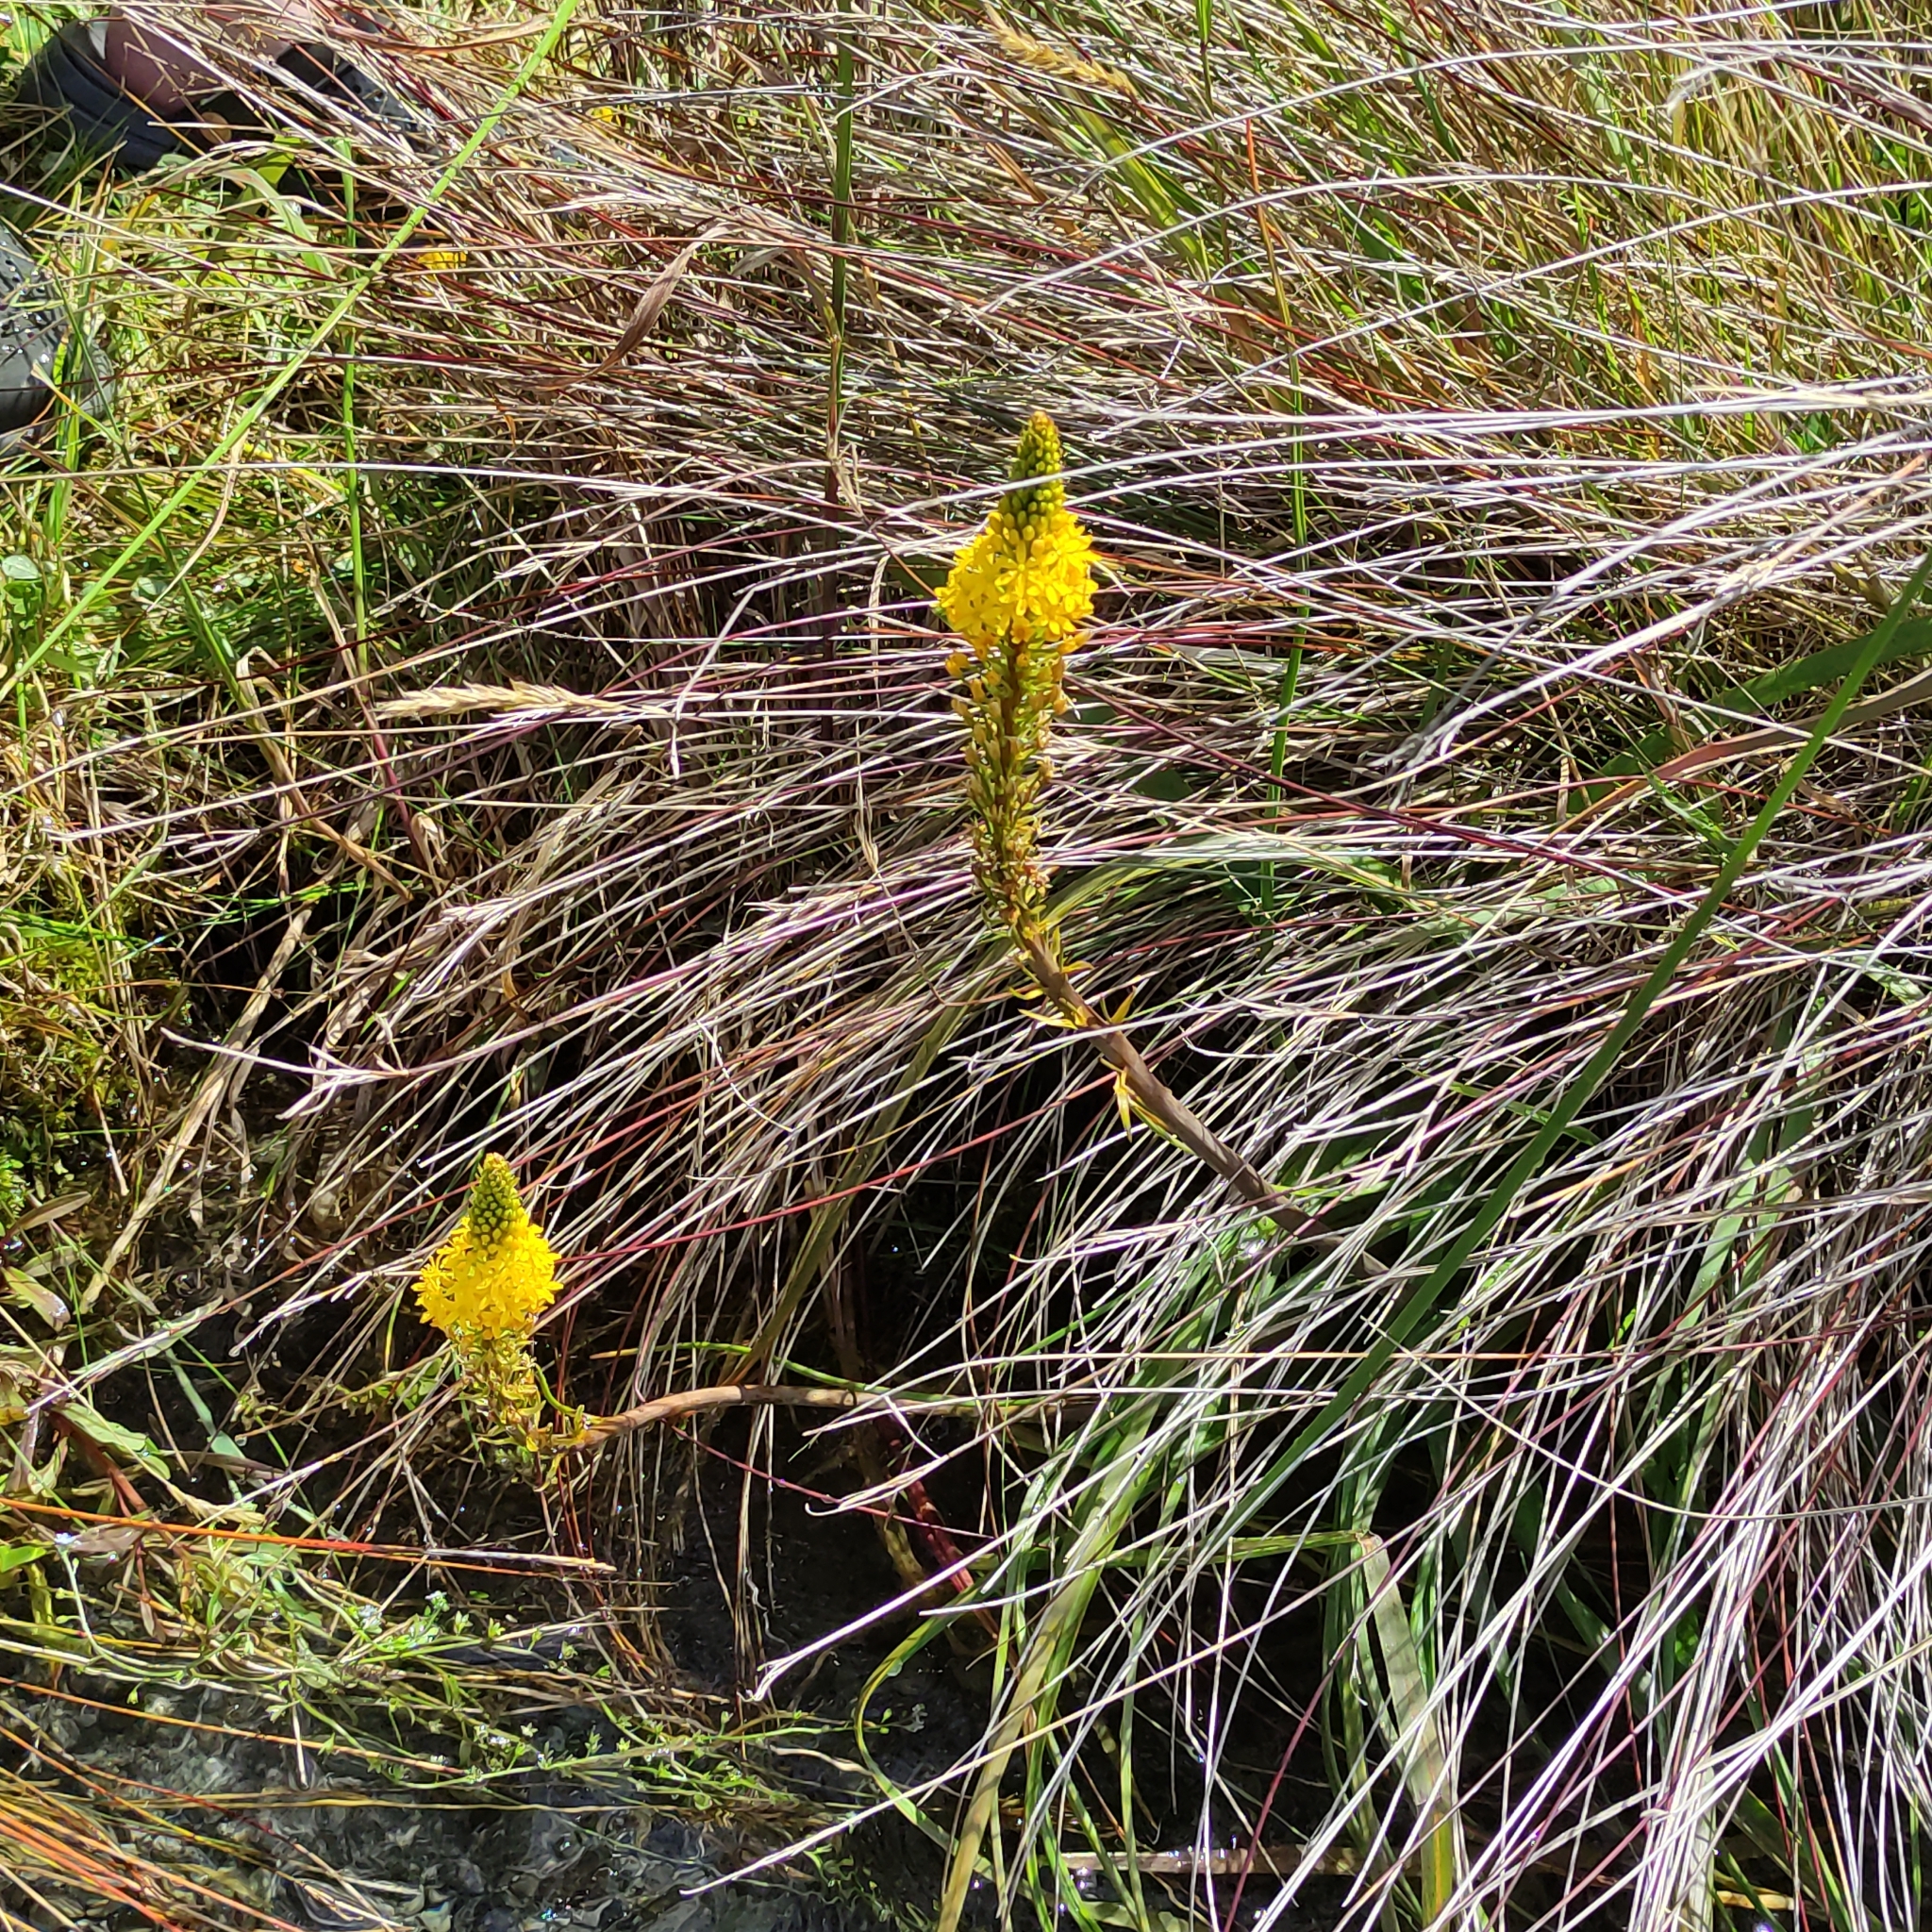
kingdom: Plantae
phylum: Tracheophyta
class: Liliopsida
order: Asparagales
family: Asphodelaceae
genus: Bulbinella
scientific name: Bulbinella angustifolia
